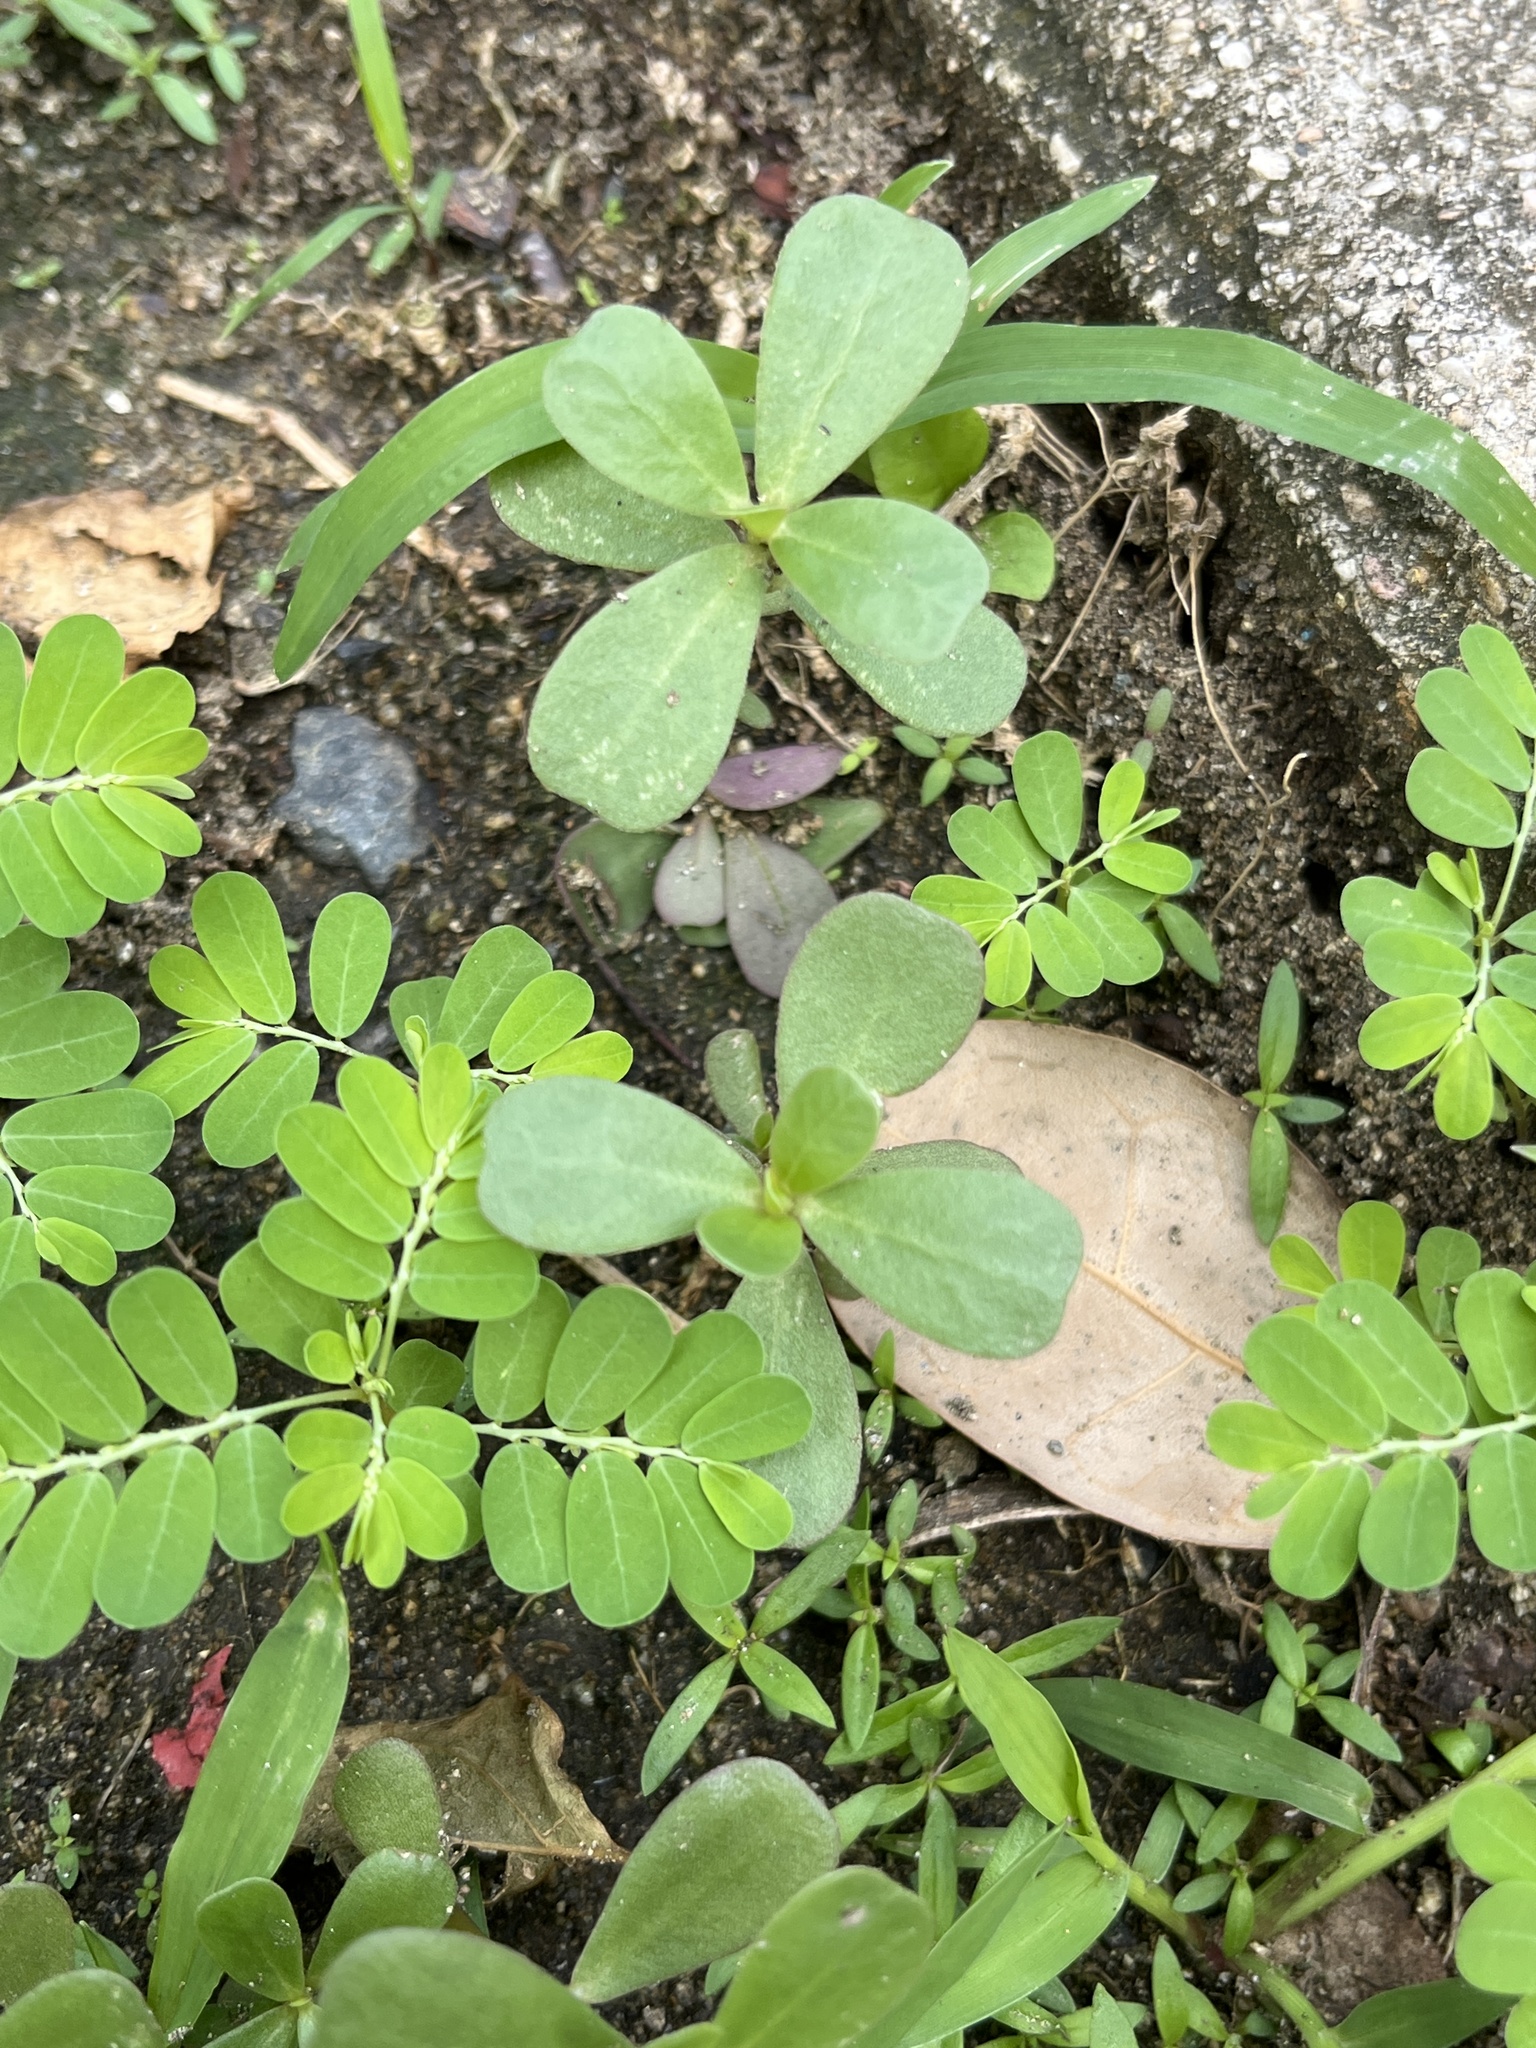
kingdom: Plantae
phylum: Tracheophyta
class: Magnoliopsida
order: Caryophyllales
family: Portulacaceae
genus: Portulaca
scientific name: Portulaca oleracea
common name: Common purslane
